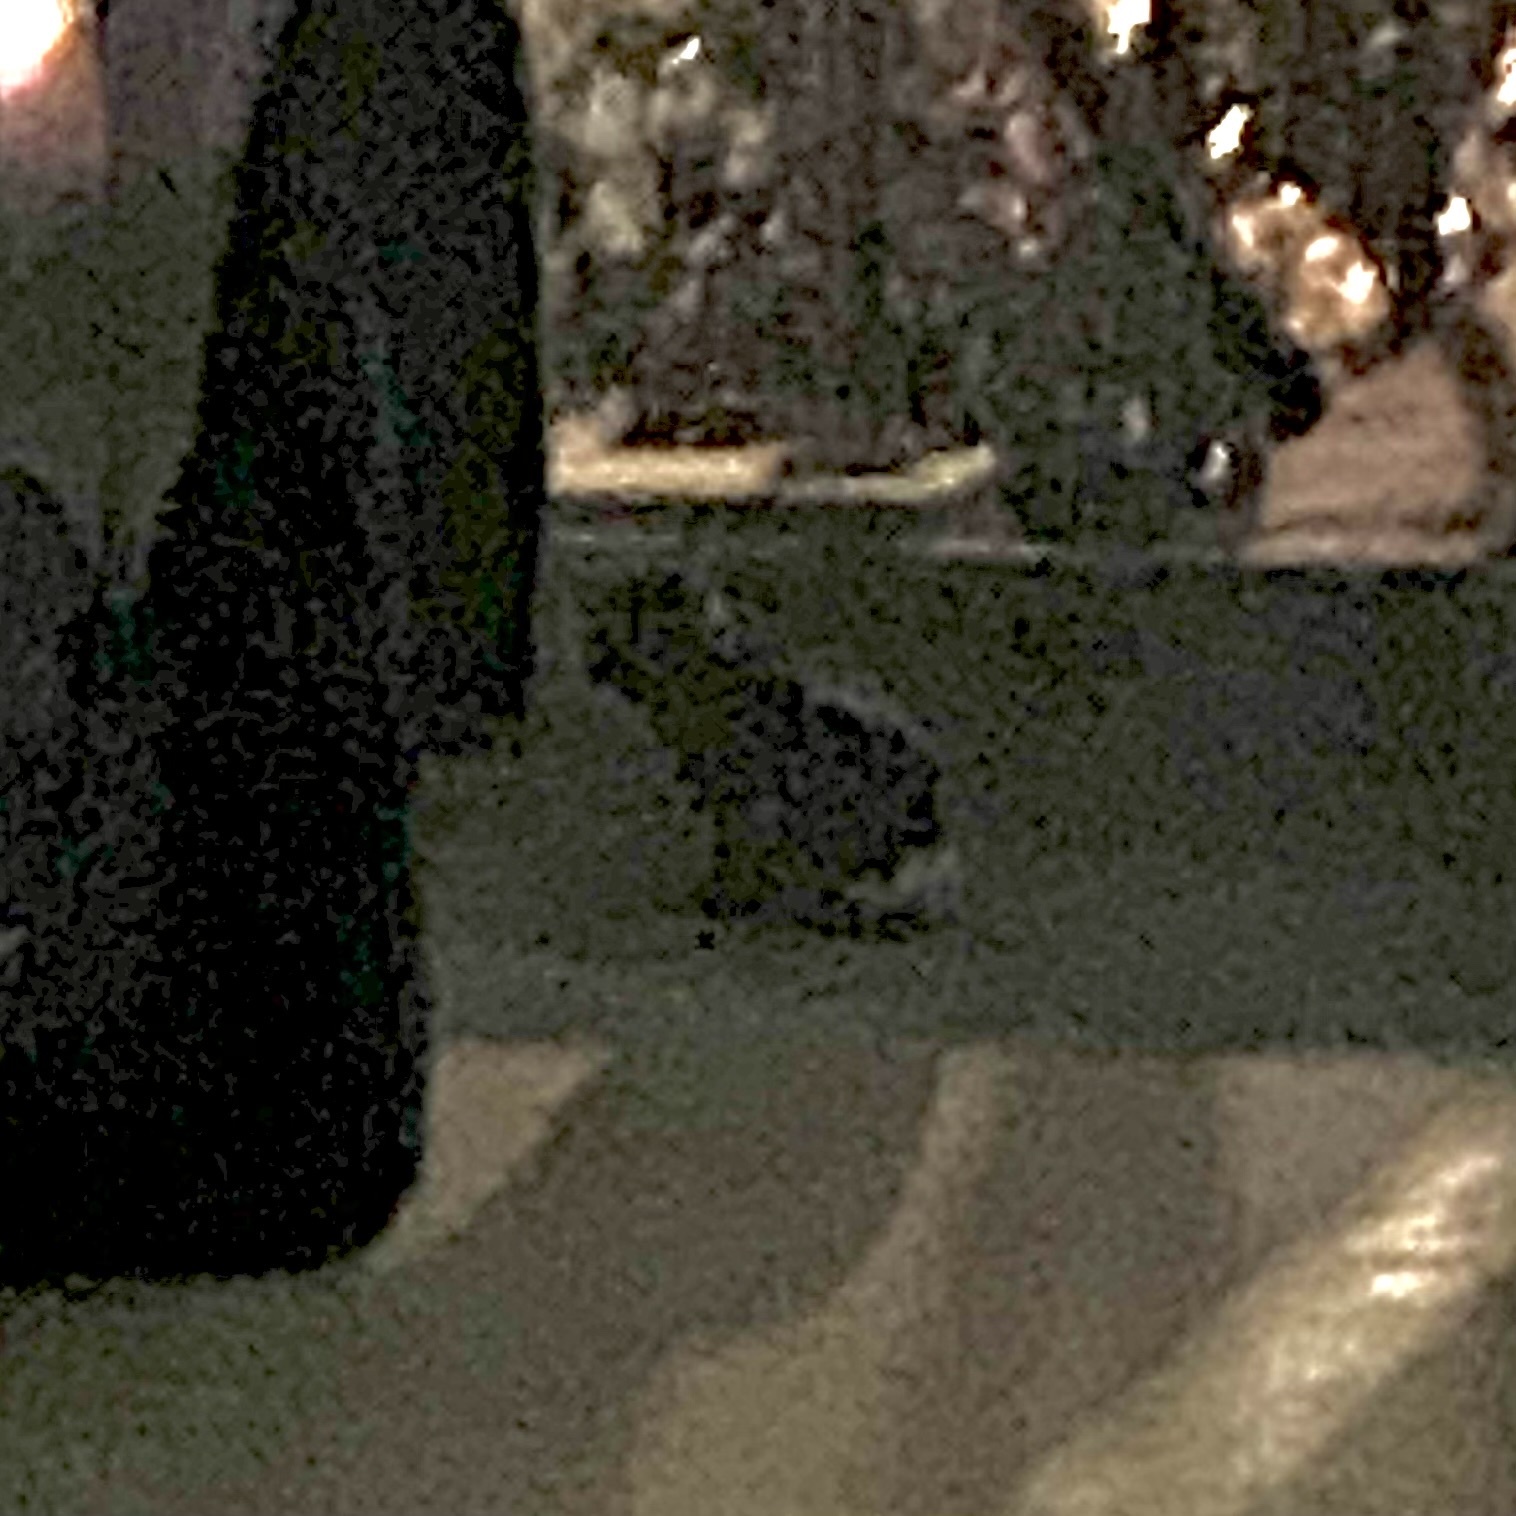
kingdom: Animalia
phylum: Chordata
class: Mammalia
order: Lagomorpha
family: Leporidae
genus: Sylvilagus
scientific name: Sylvilagus floridanus
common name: Eastern cottontail
